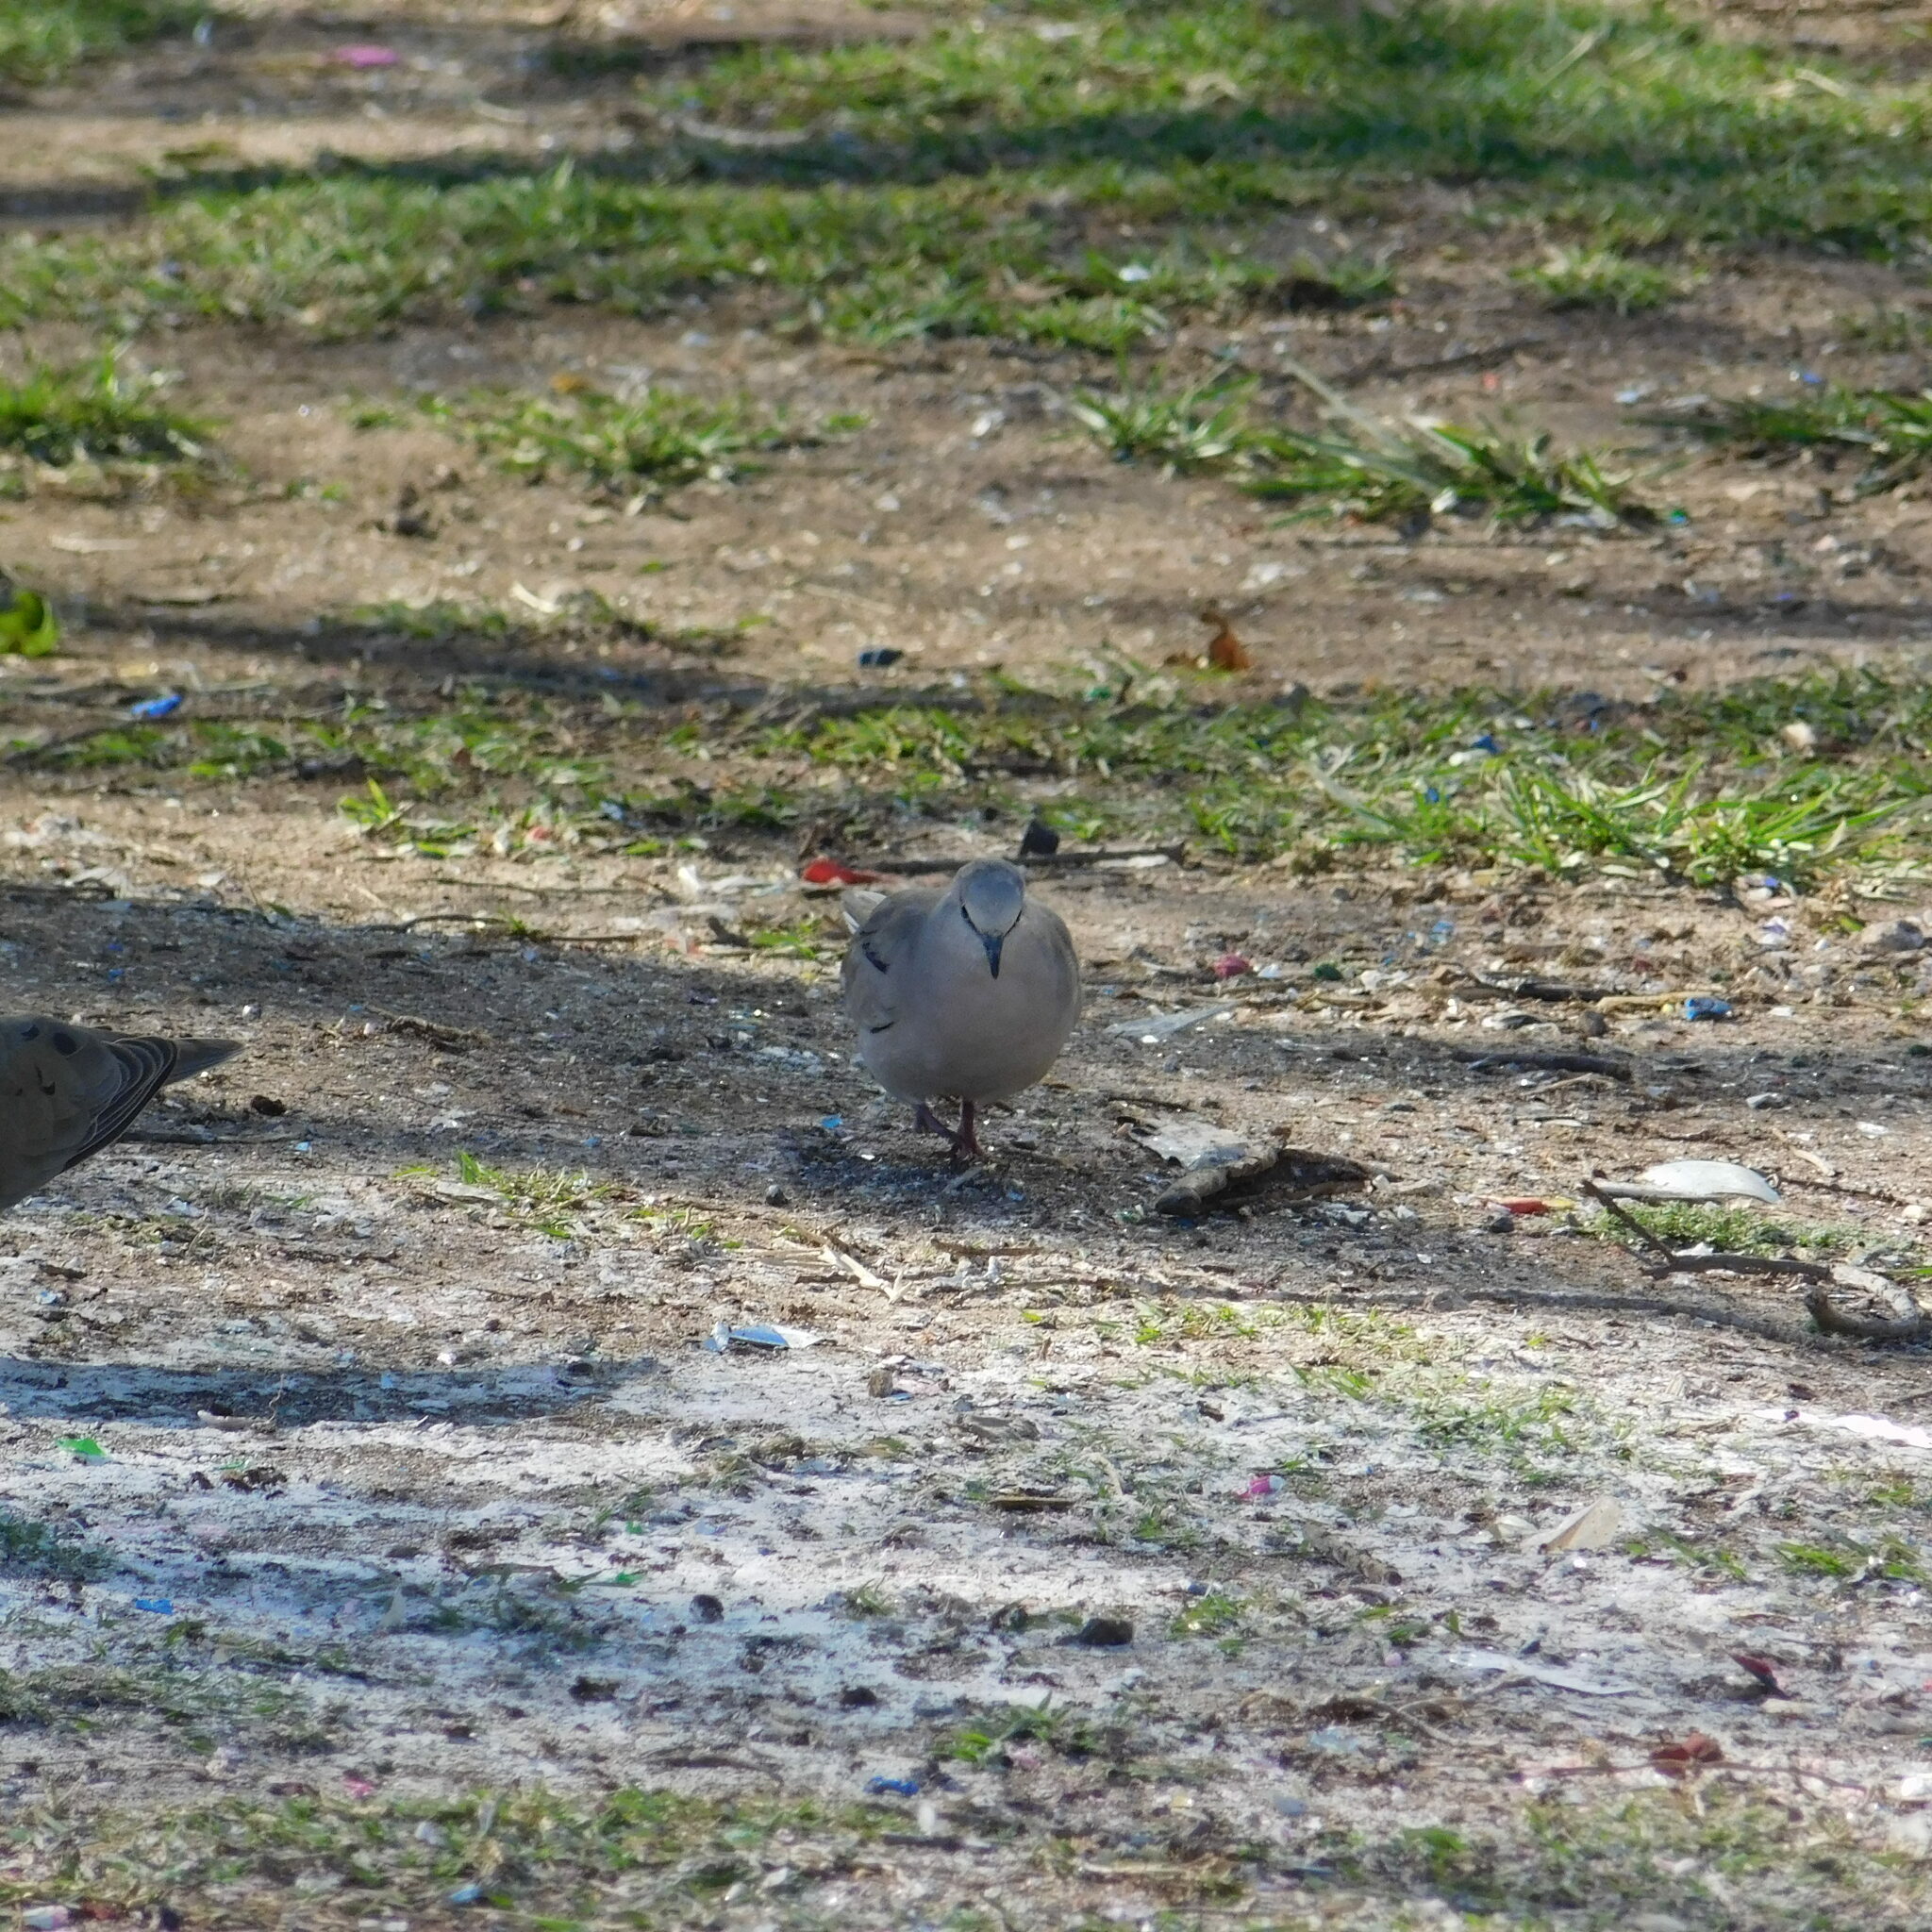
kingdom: Animalia
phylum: Chordata
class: Aves
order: Columbiformes
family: Columbidae
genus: Columbina
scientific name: Columbina picui
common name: Picui ground dove
